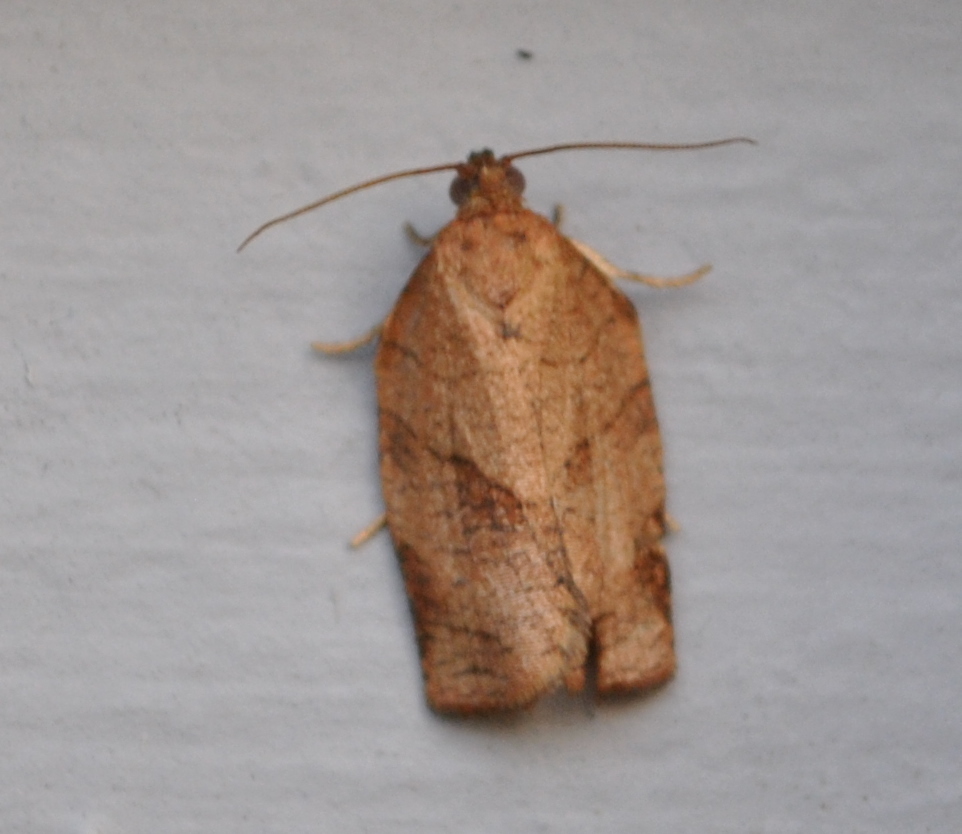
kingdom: Animalia
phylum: Arthropoda
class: Insecta
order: Lepidoptera
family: Tortricidae
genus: Choristoneura
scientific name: Choristoneura rosaceana
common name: Oblique-banded leafroller moth
